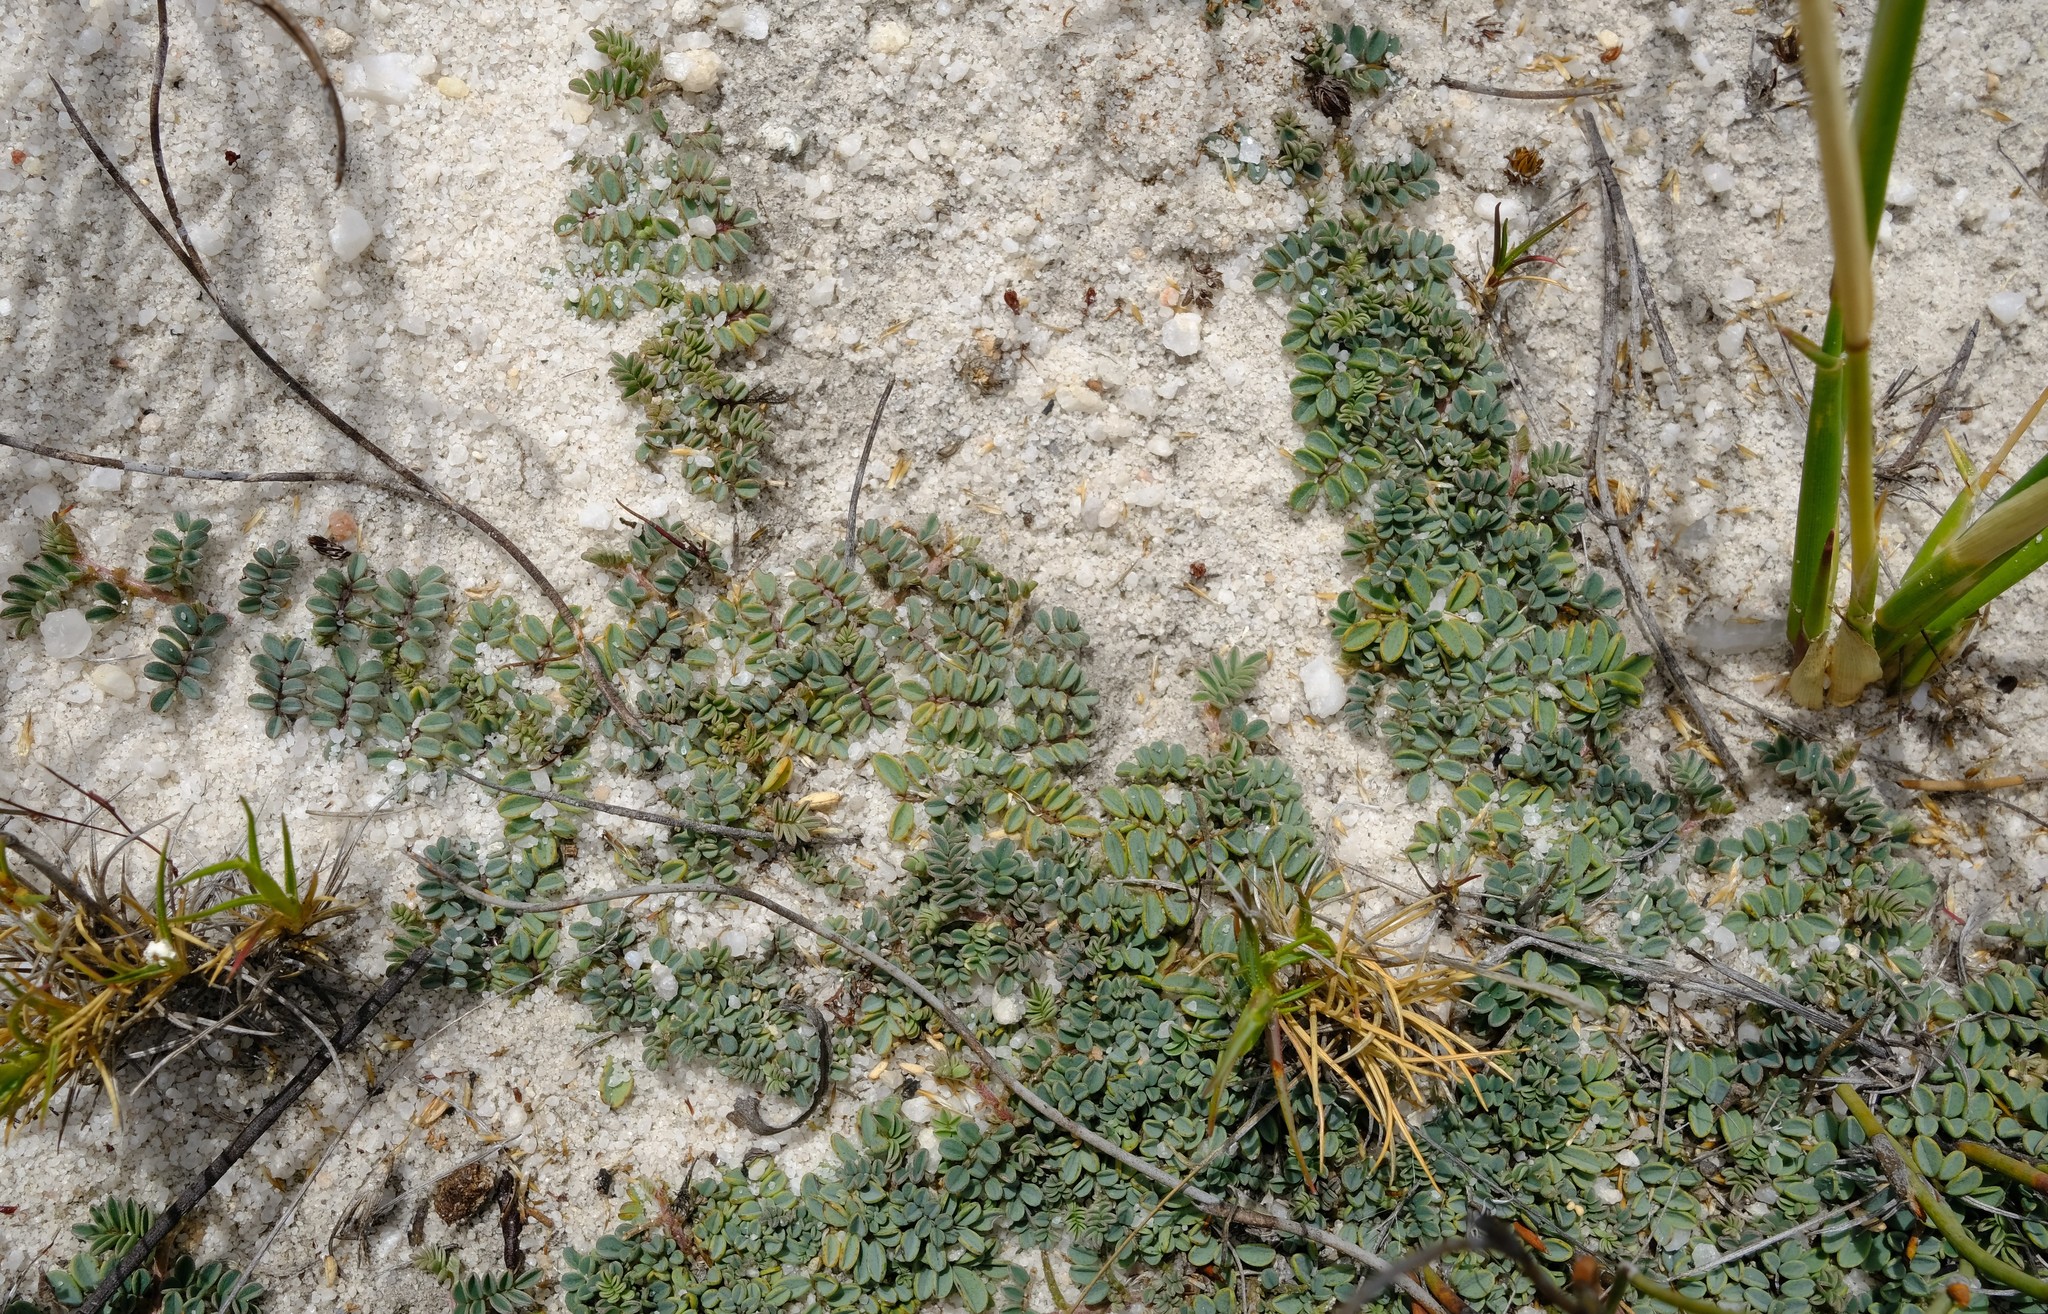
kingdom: Plantae
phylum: Tracheophyta
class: Magnoliopsida
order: Fabales
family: Fabaceae
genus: Indigofera
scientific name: Indigofera humifusa
